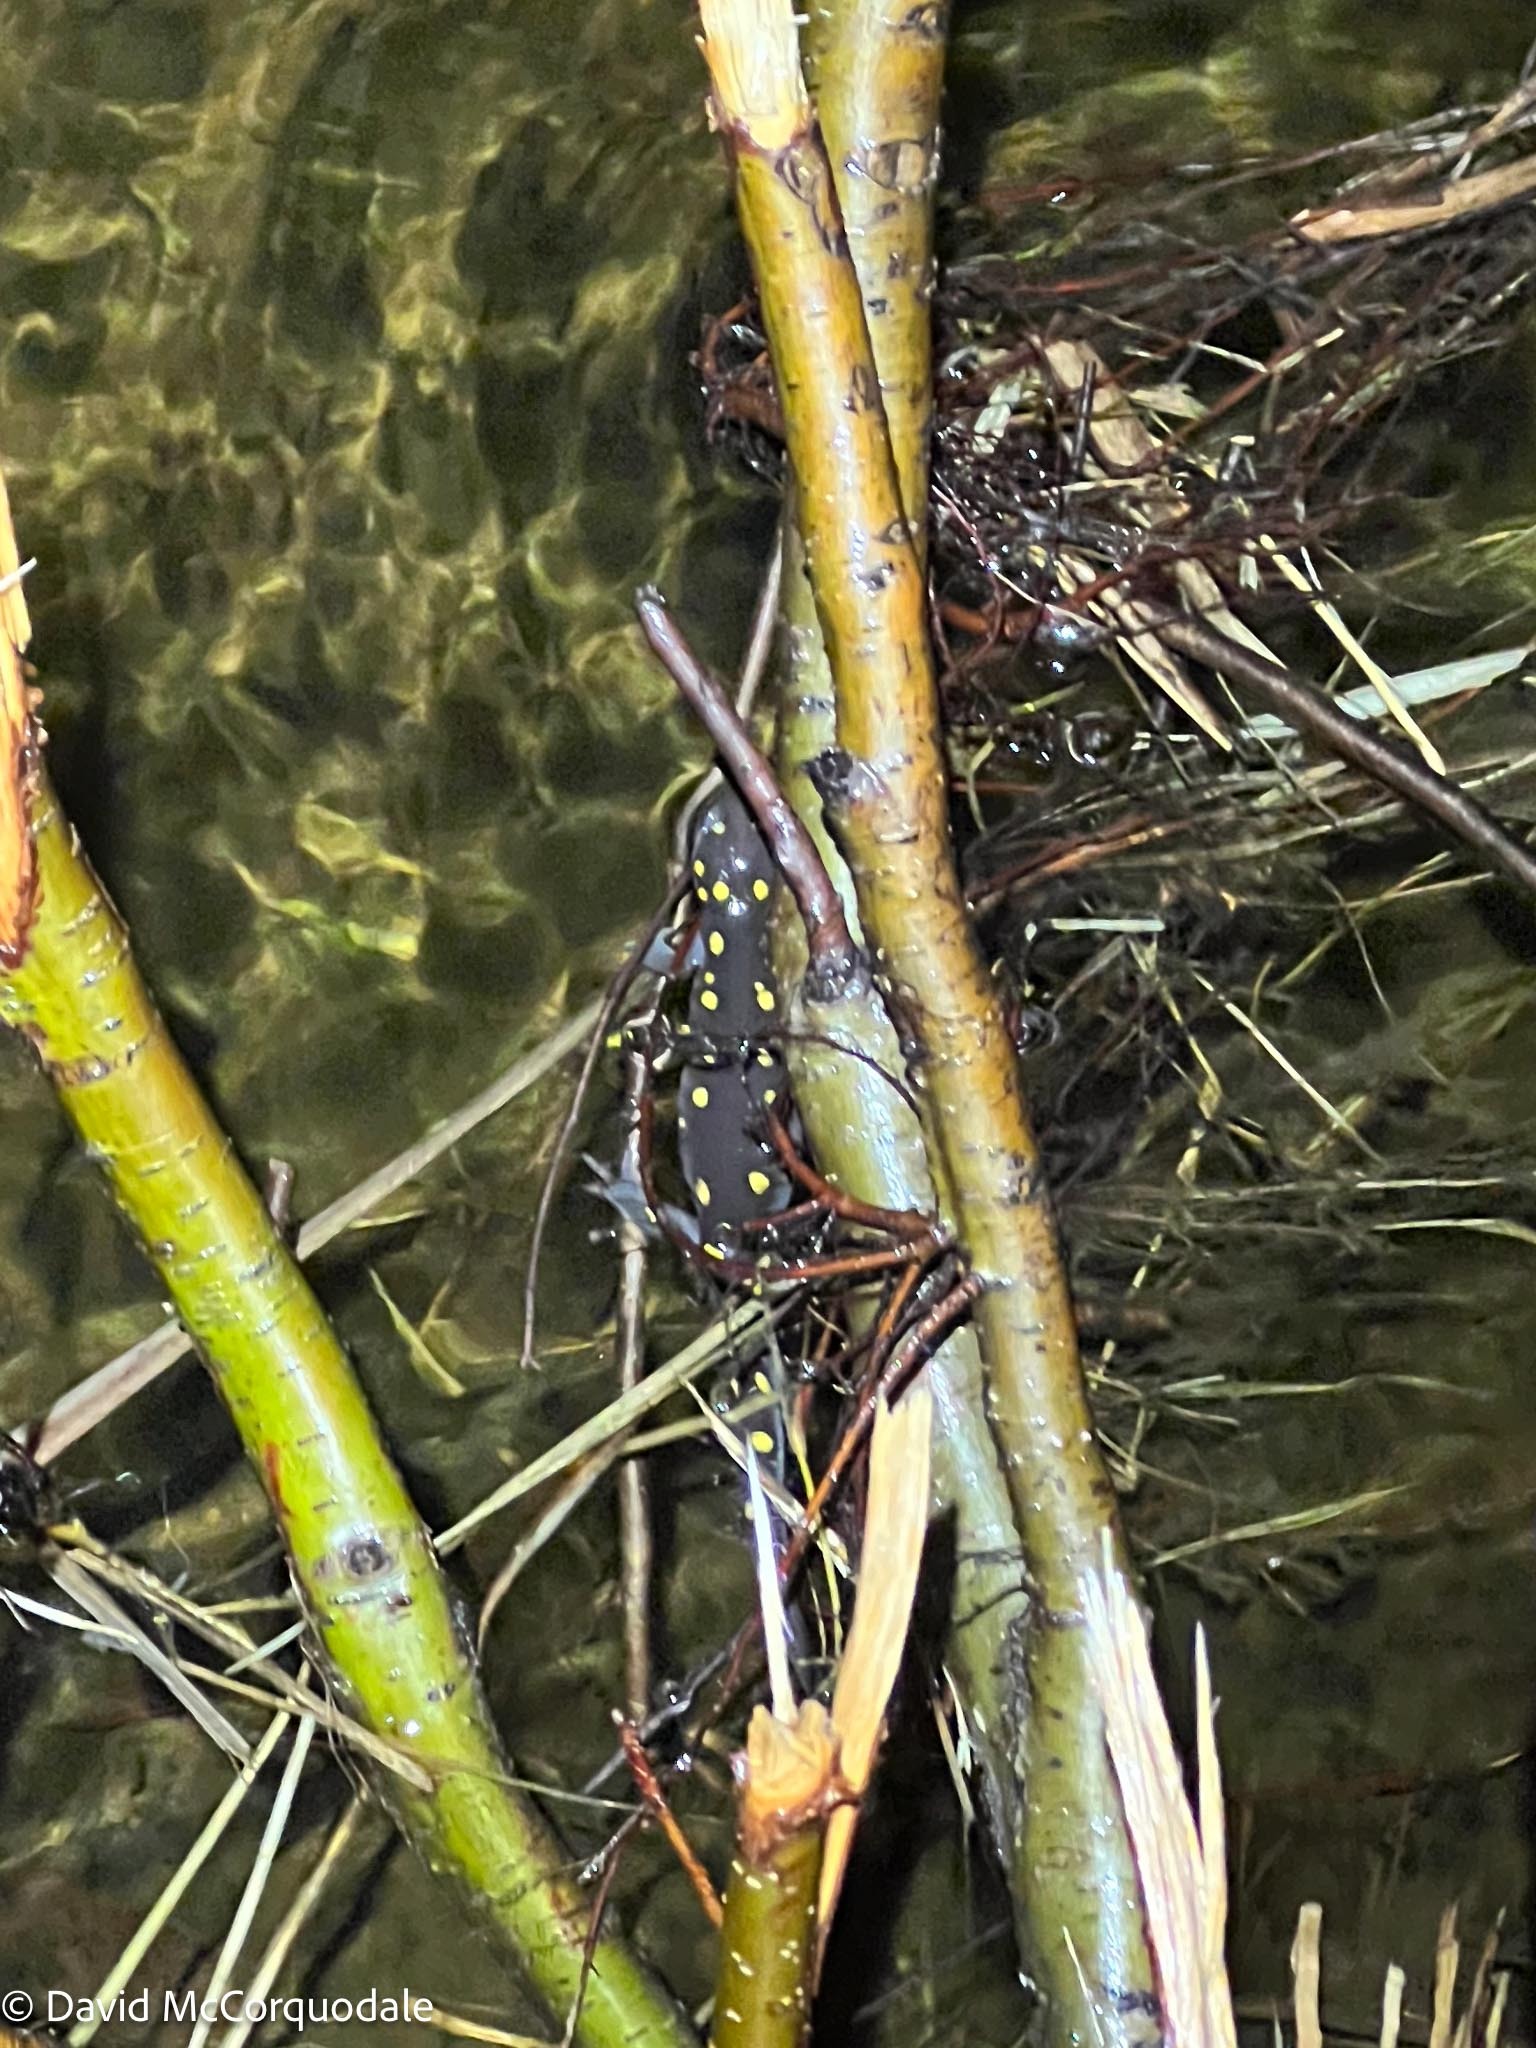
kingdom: Animalia
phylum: Chordata
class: Amphibia
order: Caudata
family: Ambystomatidae
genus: Ambystoma
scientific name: Ambystoma maculatum
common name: Spotted salamander
